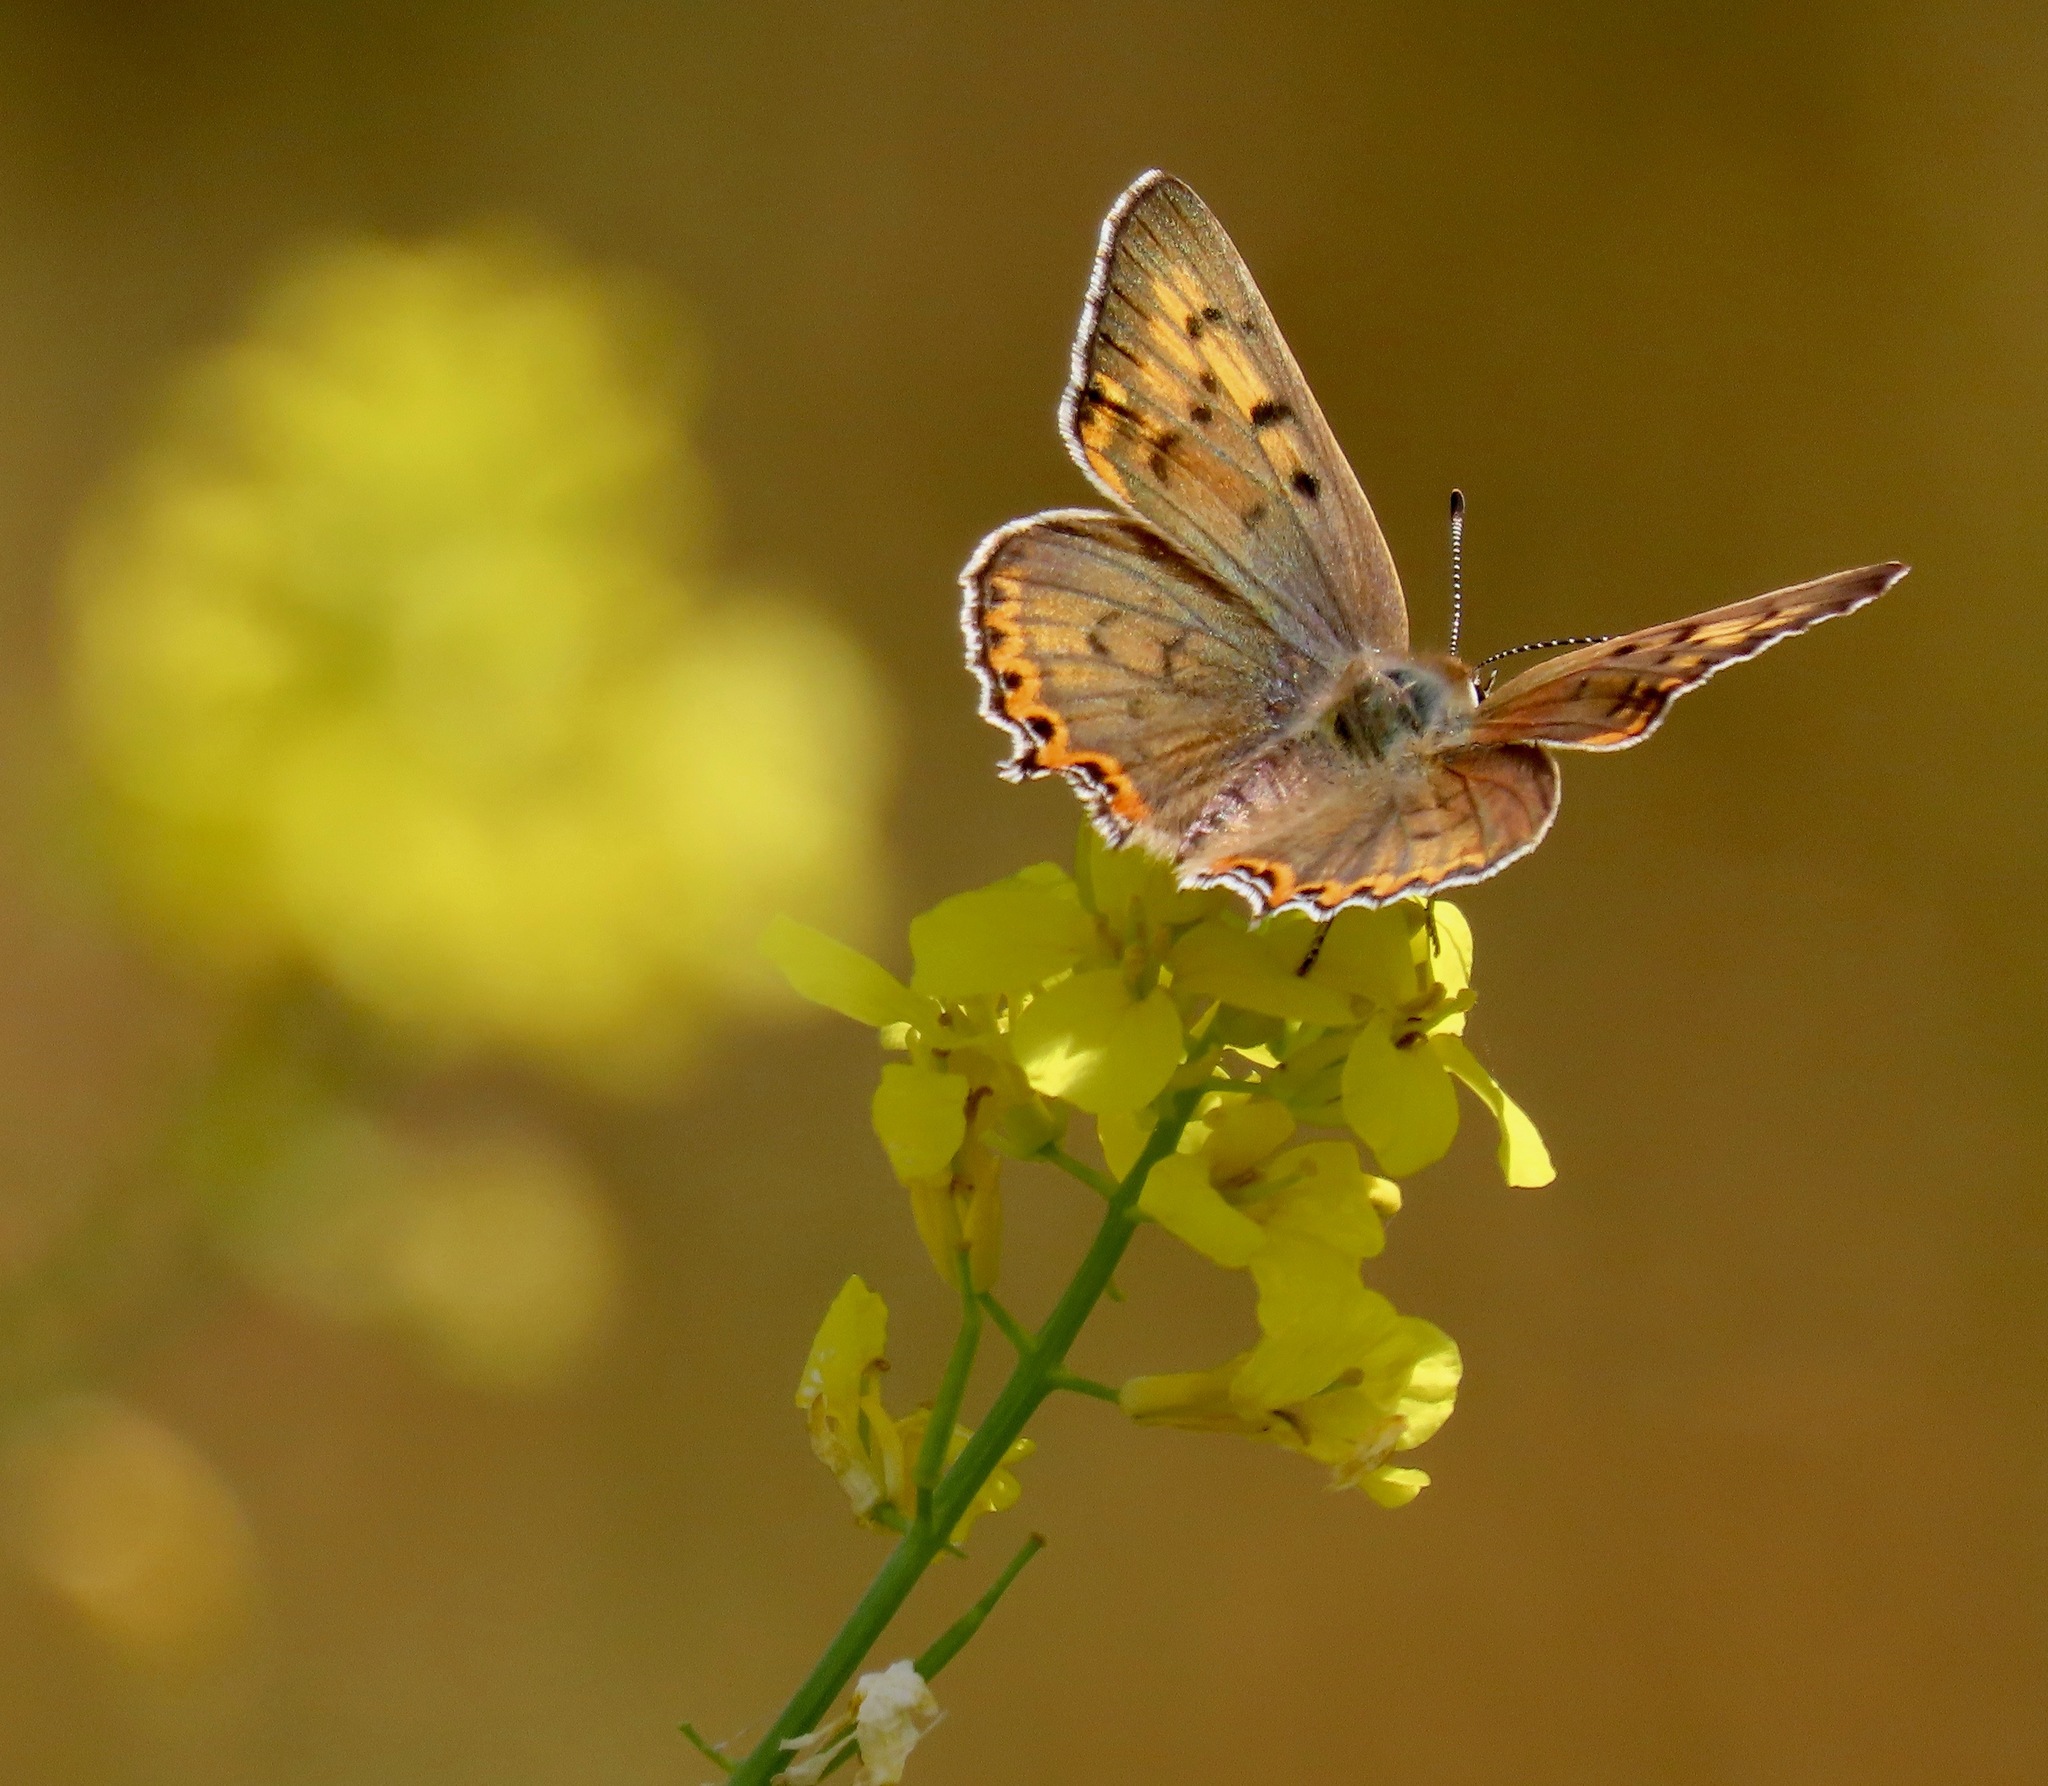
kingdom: Animalia
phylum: Arthropoda
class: Insecta
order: Lepidoptera
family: Lycaenidae
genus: Tharsalea
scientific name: Tharsalea xanthoides
